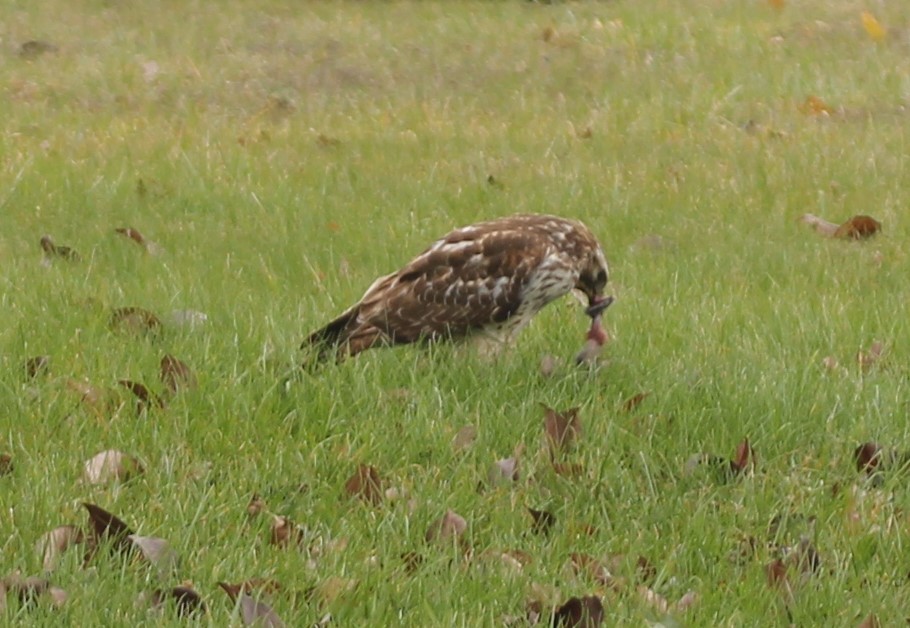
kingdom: Animalia
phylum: Chordata
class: Aves
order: Accipitriformes
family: Accipitridae
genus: Buteo
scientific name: Buteo lineatus
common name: Red-shouldered hawk
